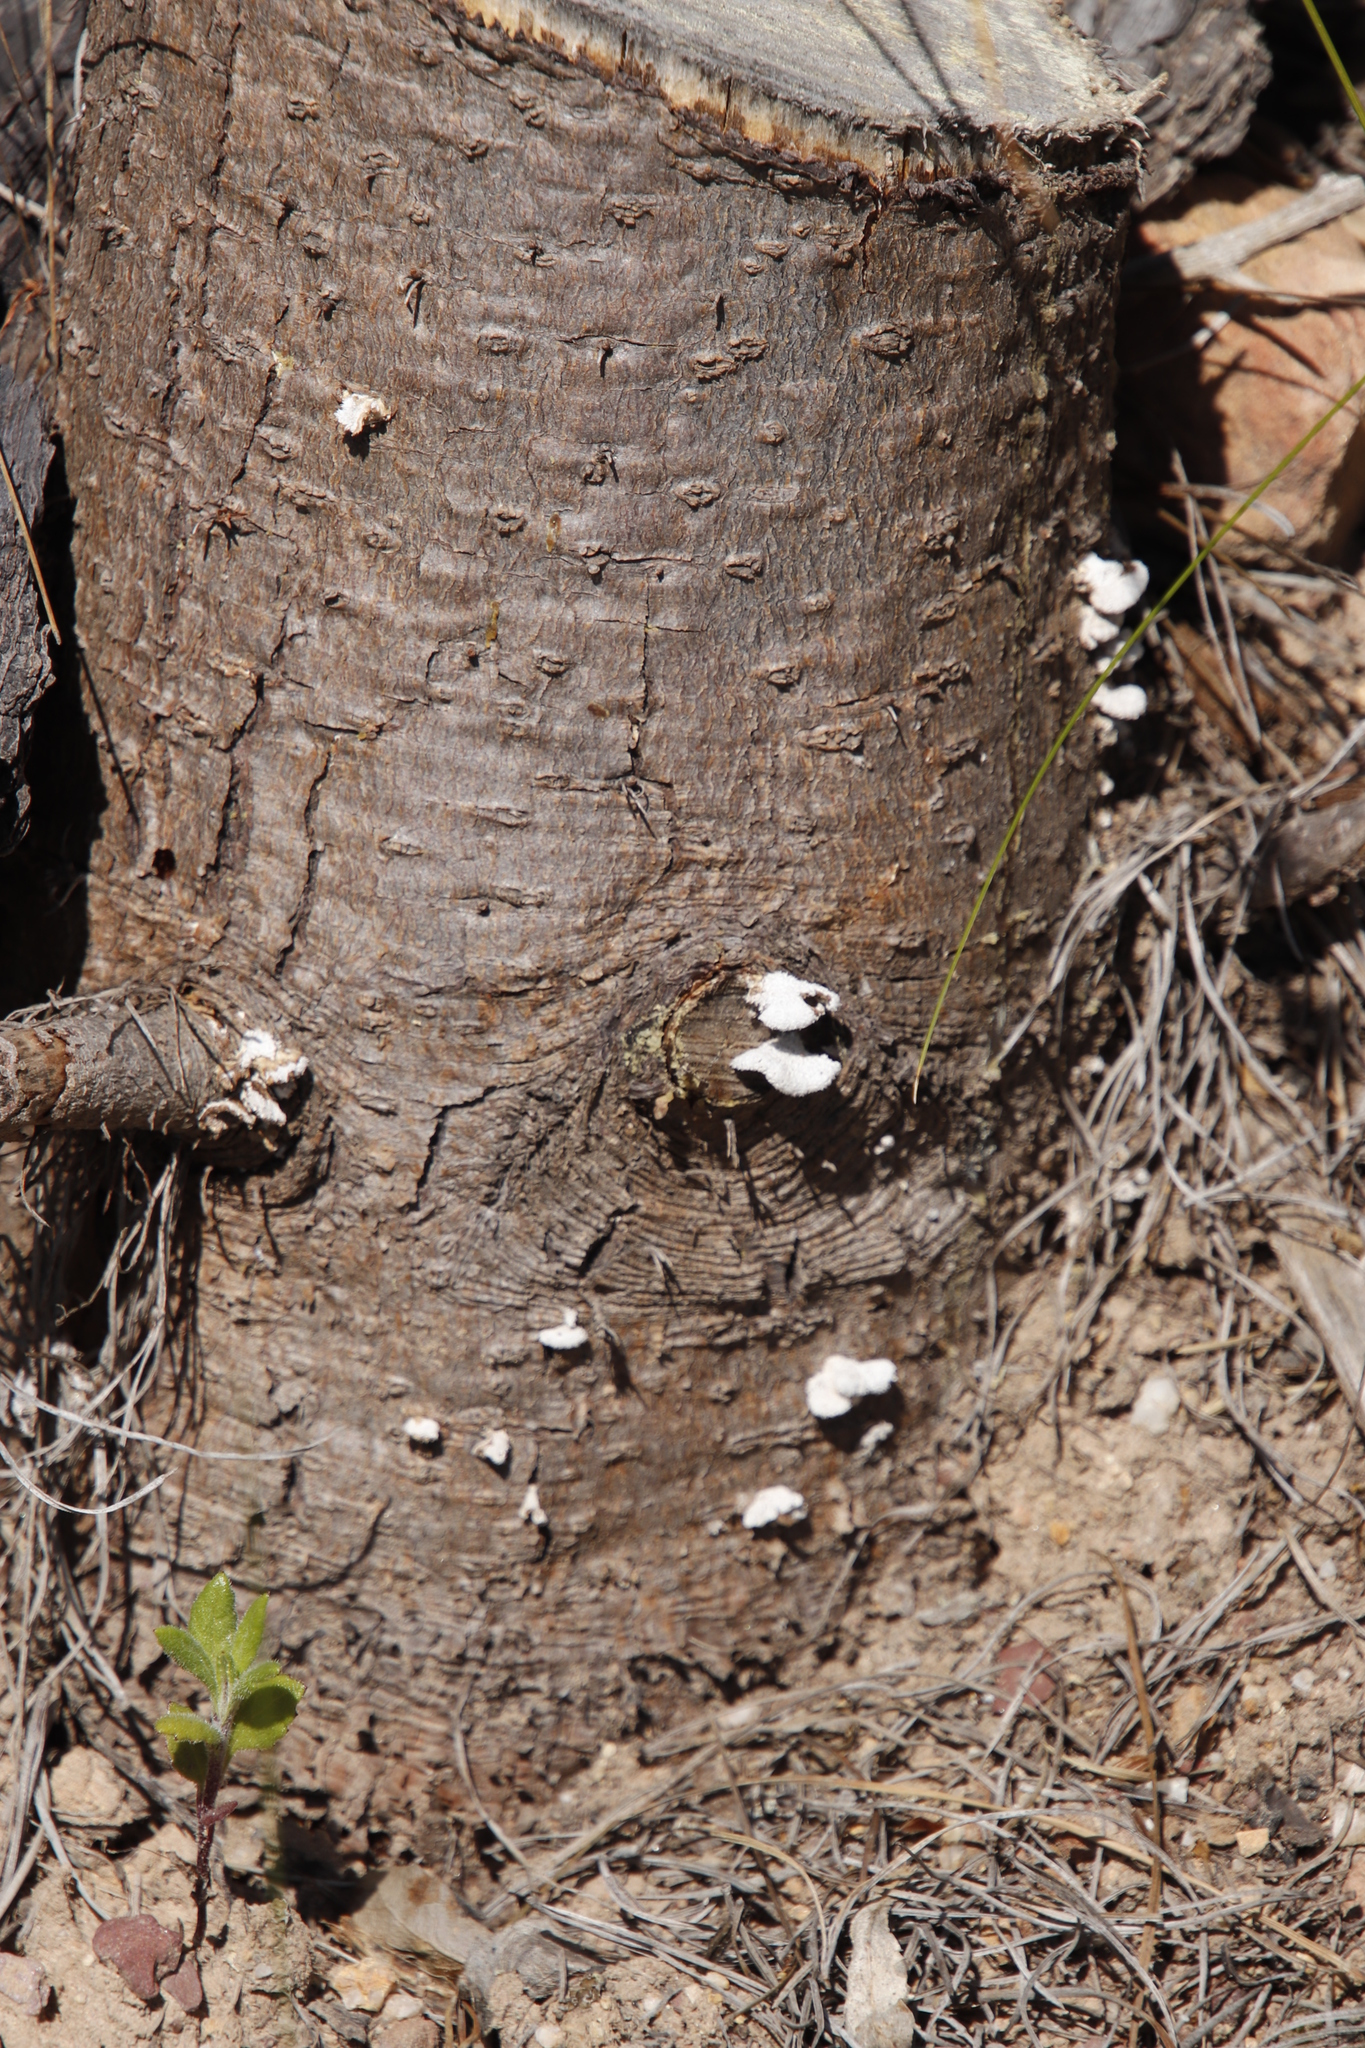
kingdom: Fungi
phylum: Basidiomycota
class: Agaricomycetes
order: Agaricales
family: Schizophyllaceae
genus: Schizophyllum
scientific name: Schizophyllum commune
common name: Common porecrust
